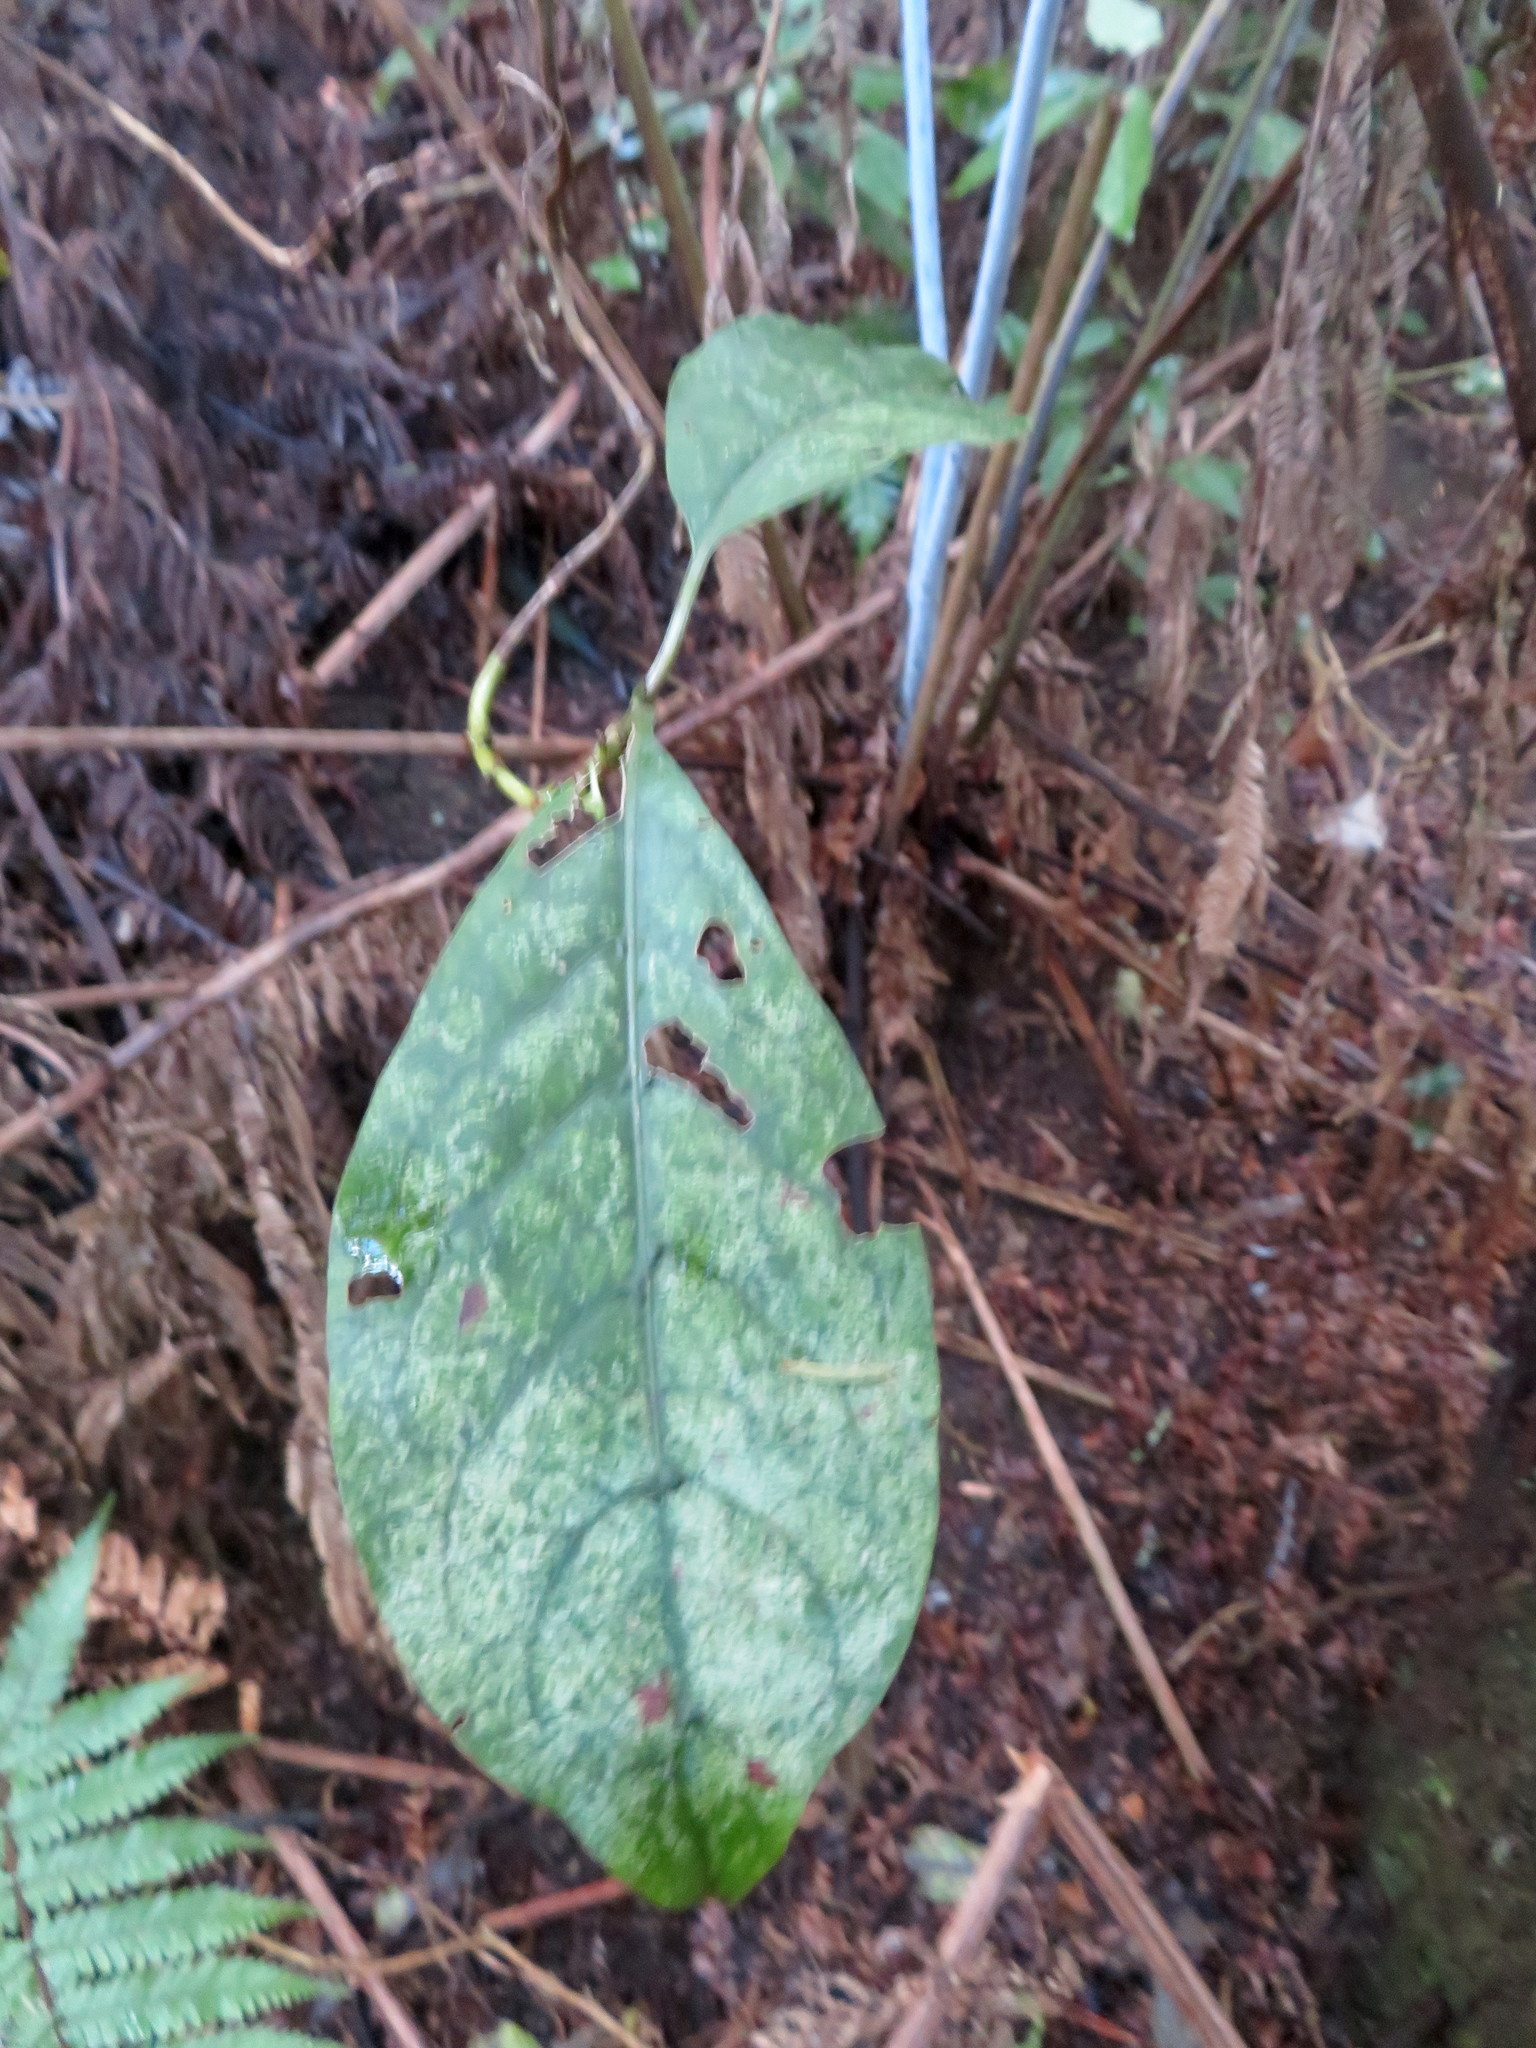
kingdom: Plantae
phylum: Tracheophyta
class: Magnoliopsida
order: Gentianales
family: Rubiaceae
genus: Coprosma
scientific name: Coprosma autumnalis
